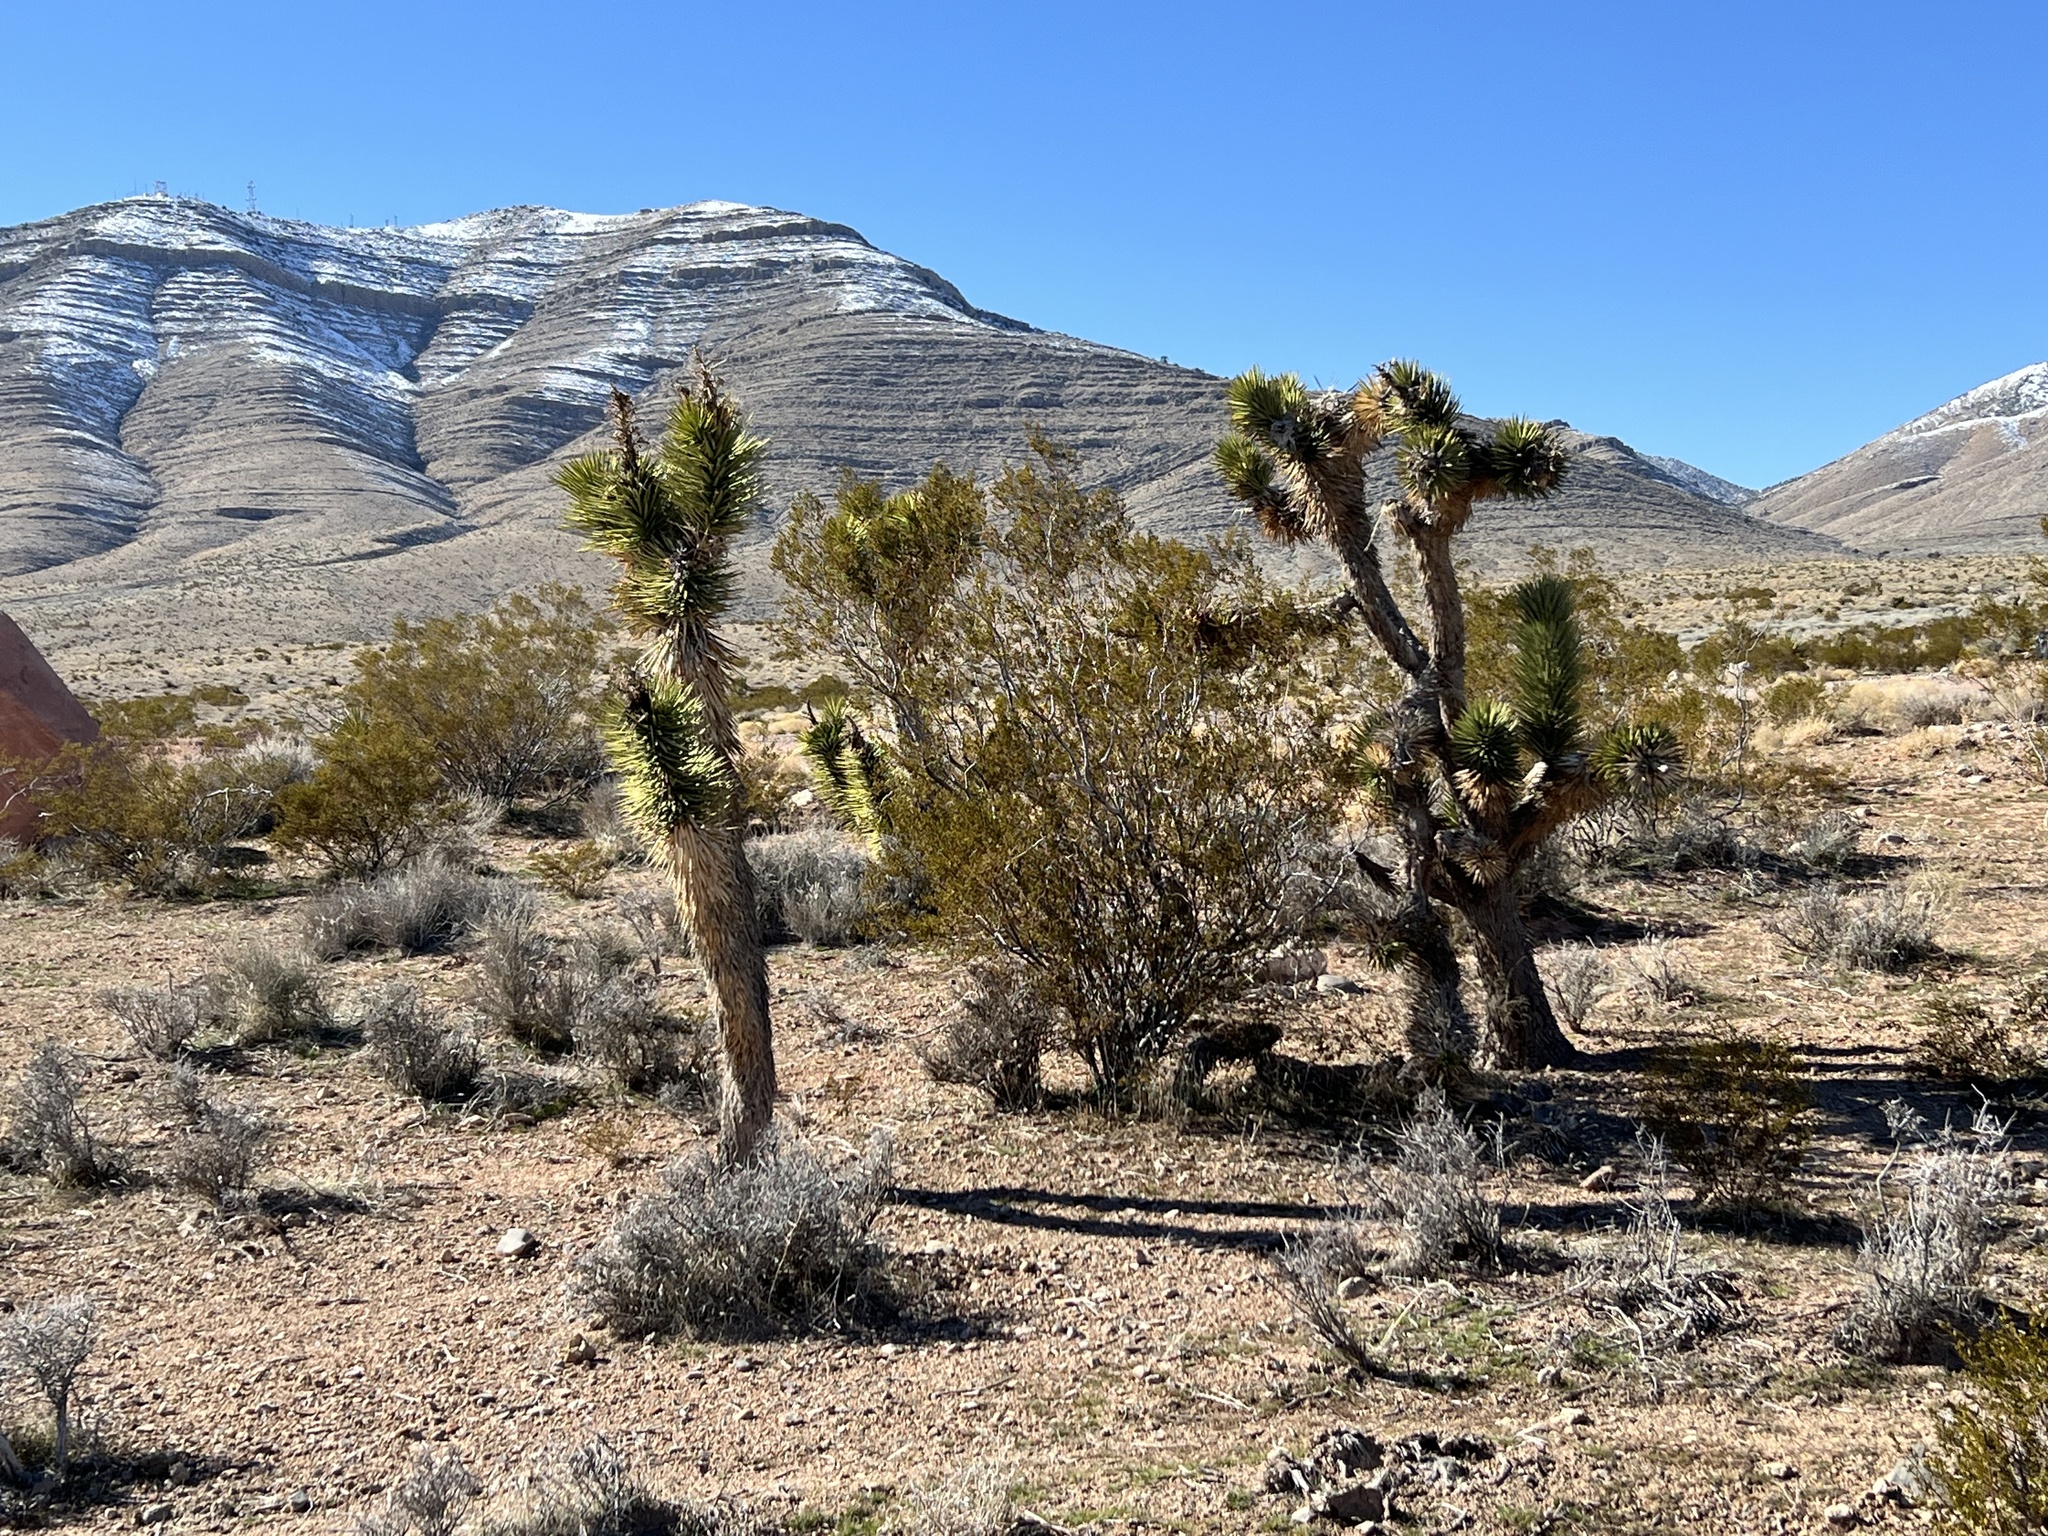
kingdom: Plantae
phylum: Tracheophyta
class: Liliopsida
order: Asparagales
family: Asparagaceae
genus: Yucca
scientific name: Yucca brevifolia
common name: Joshua tree
